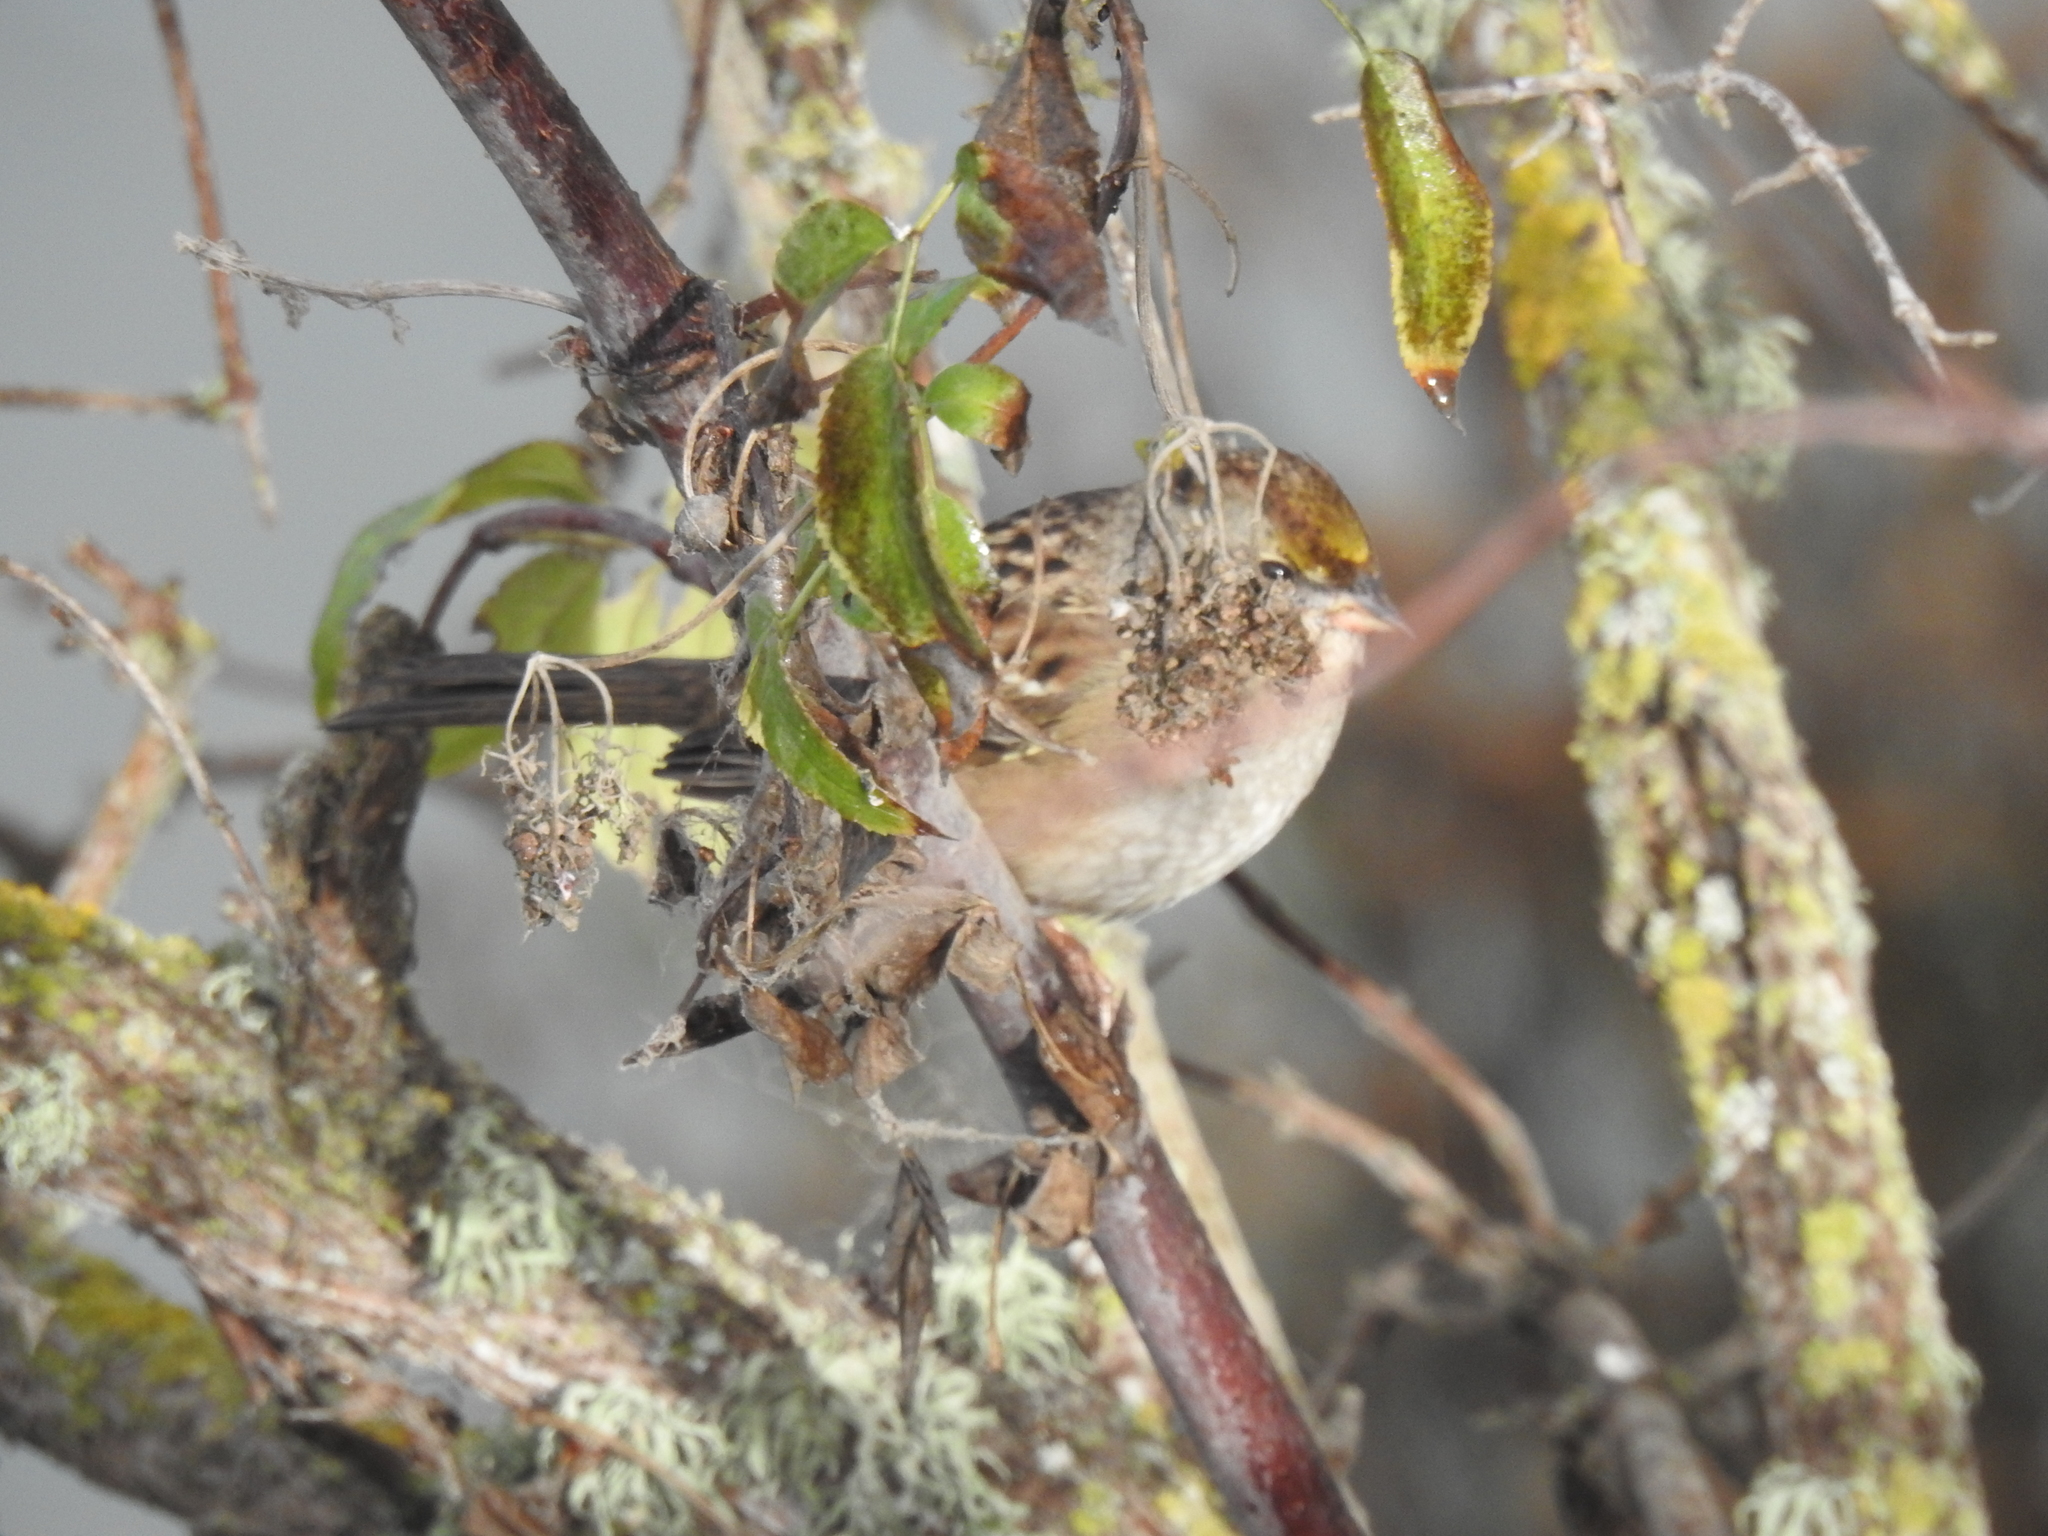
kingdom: Animalia
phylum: Chordata
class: Aves
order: Passeriformes
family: Passerellidae
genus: Zonotrichia
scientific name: Zonotrichia atricapilla
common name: Golden-crowned sparrow
